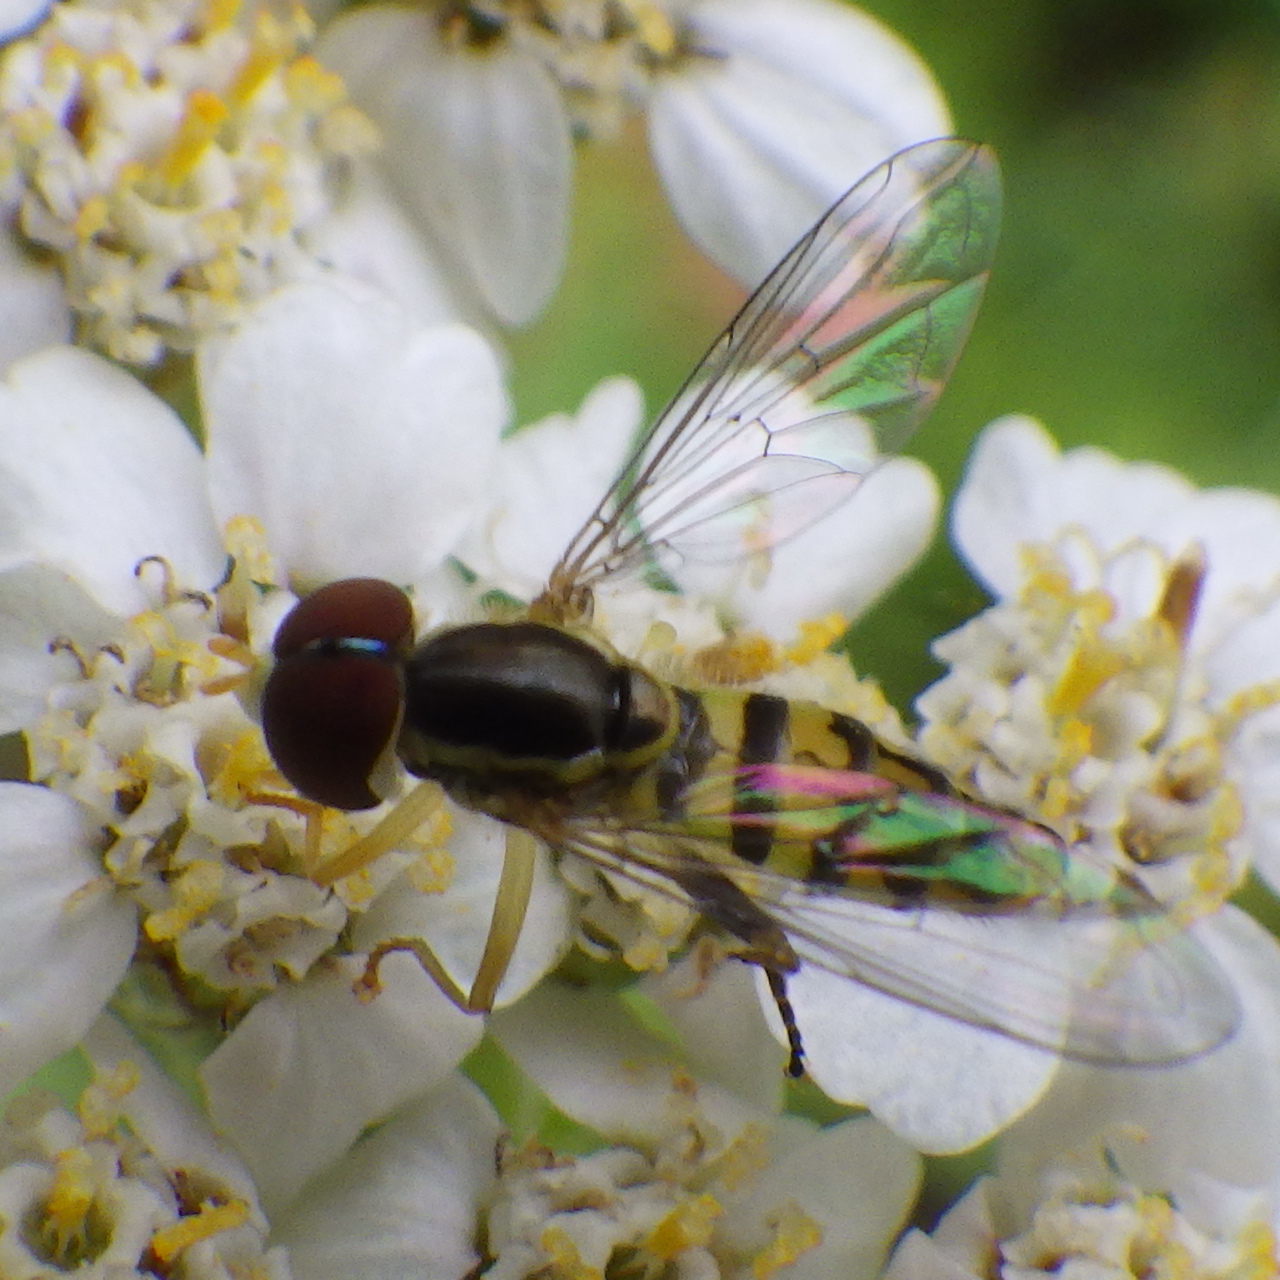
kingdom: Animalia
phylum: Arthropoda
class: Insecta
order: Diptera
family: Syrphidae
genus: Toxomerus
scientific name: Toxomerus geminatus
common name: Eastern calligrapher
